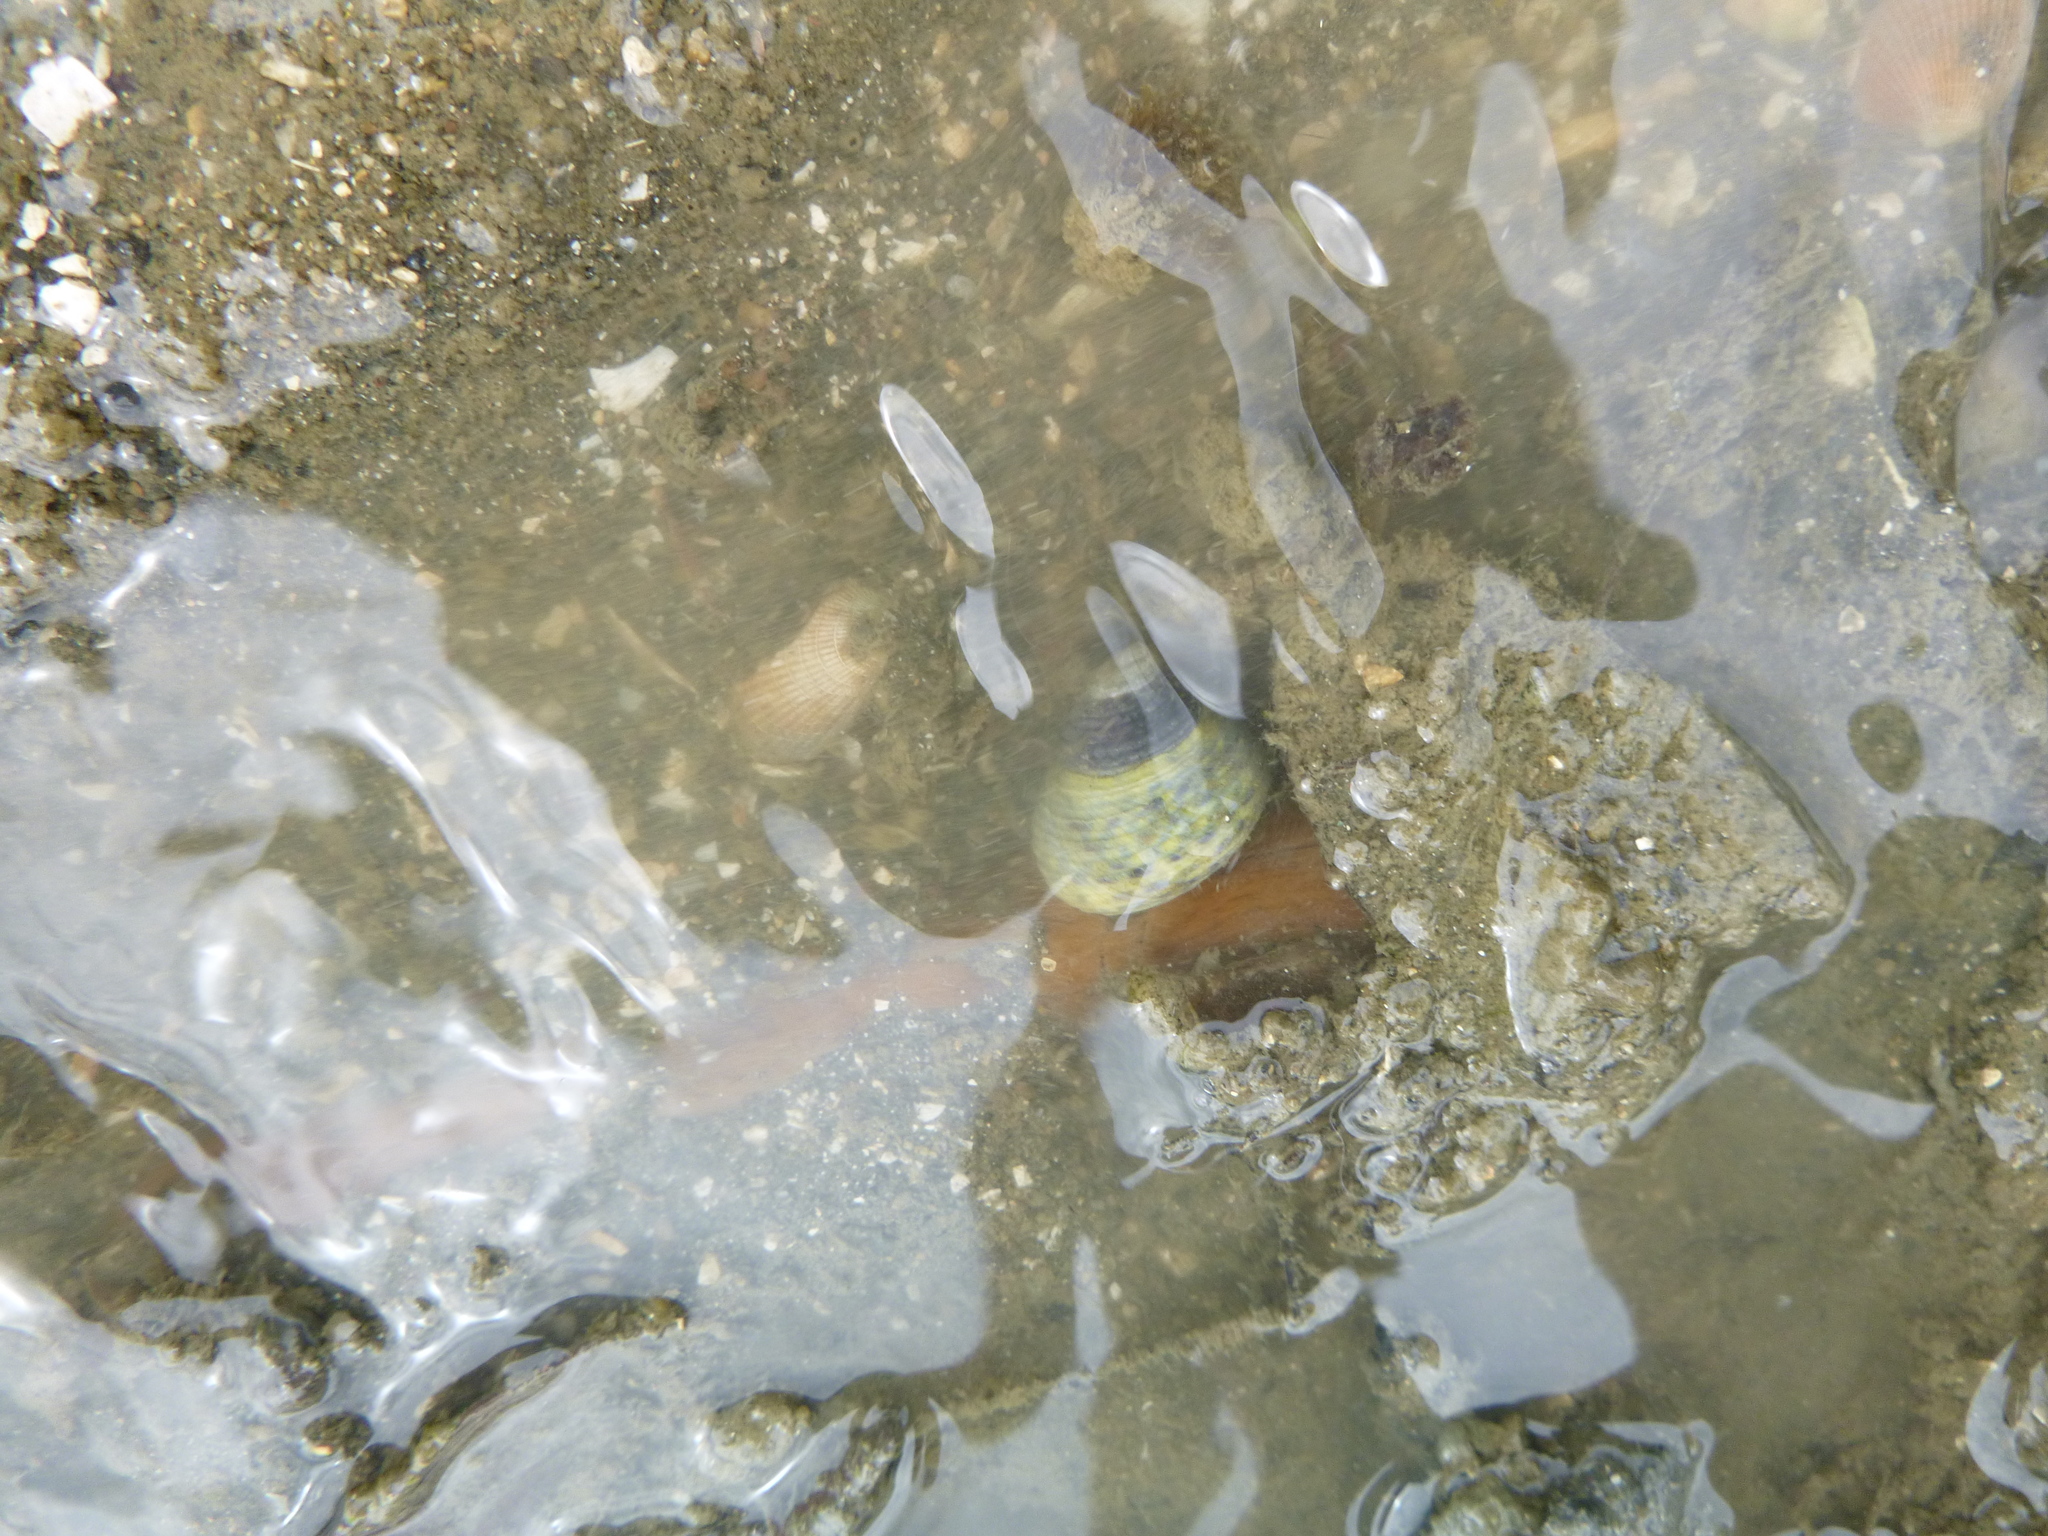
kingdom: Animalia
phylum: Mollusca
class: Gastropoda
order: Trochida
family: Trochidae
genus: Diloma
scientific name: Diloma subrostratum
